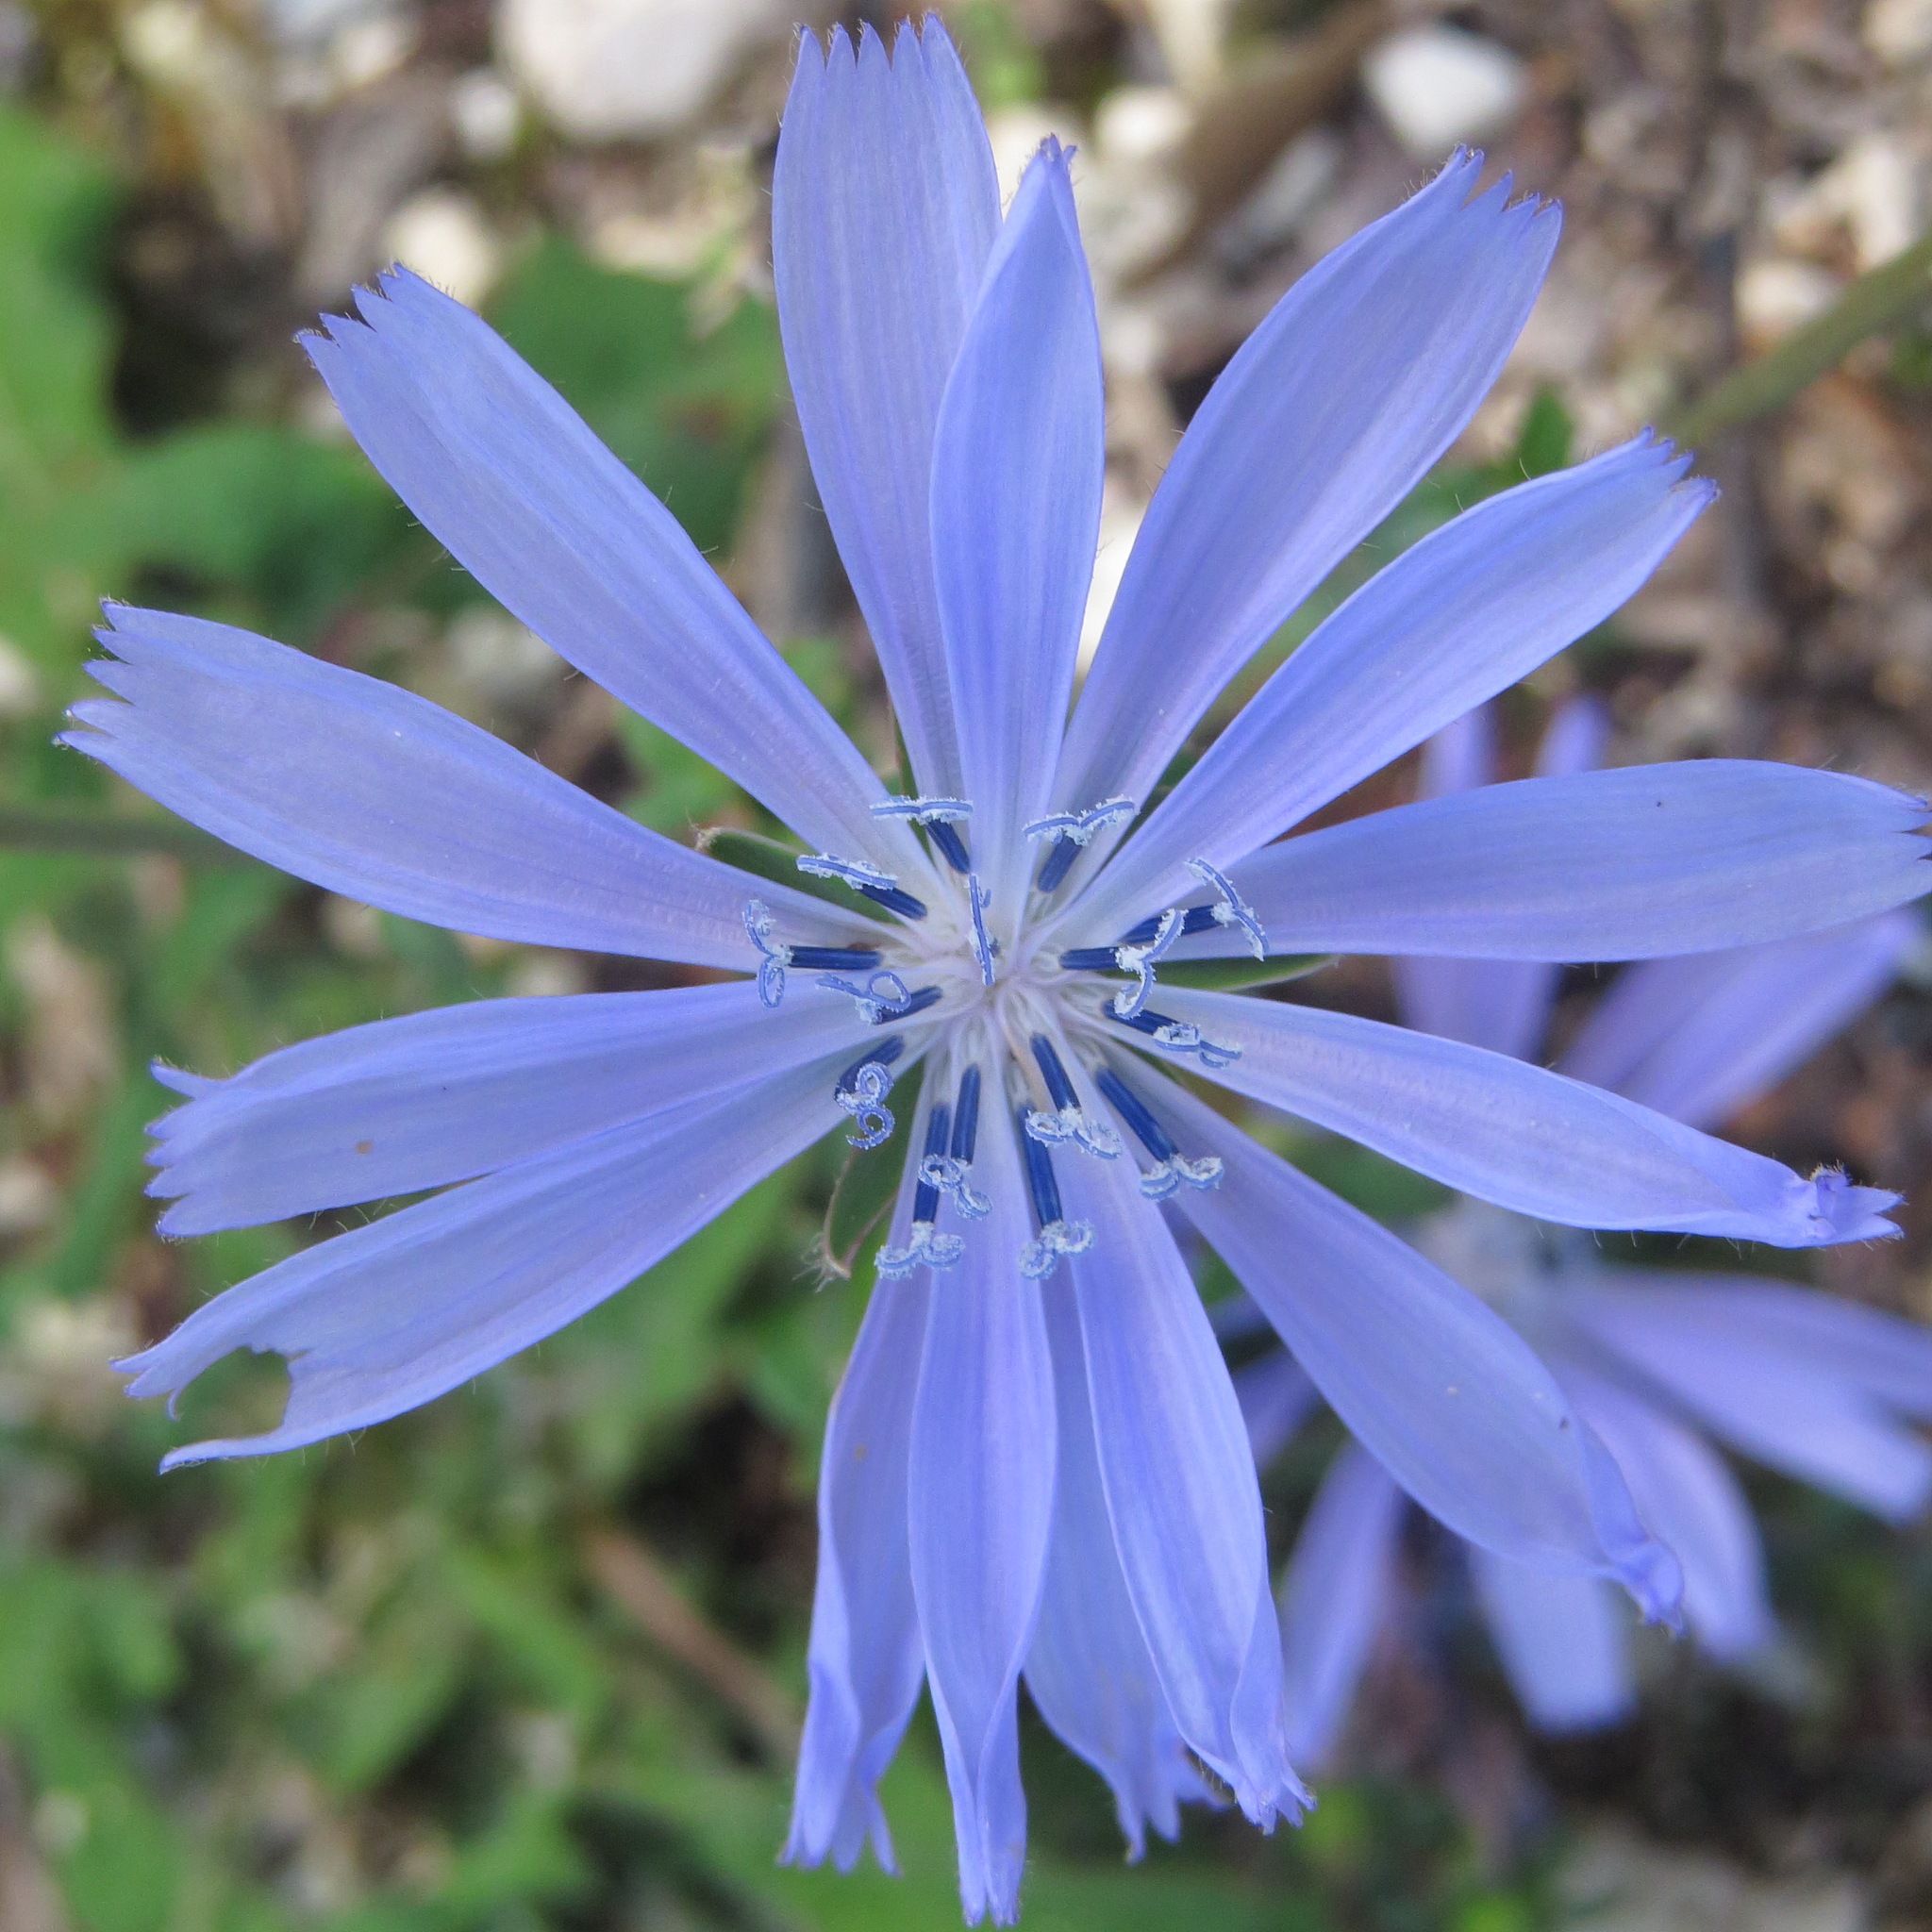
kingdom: Plantae
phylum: Tracheophyta
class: Magnoliopsida
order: Asterales
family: Asteraceae
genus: Cichorium
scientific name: Cichorium intybus
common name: Chicory
